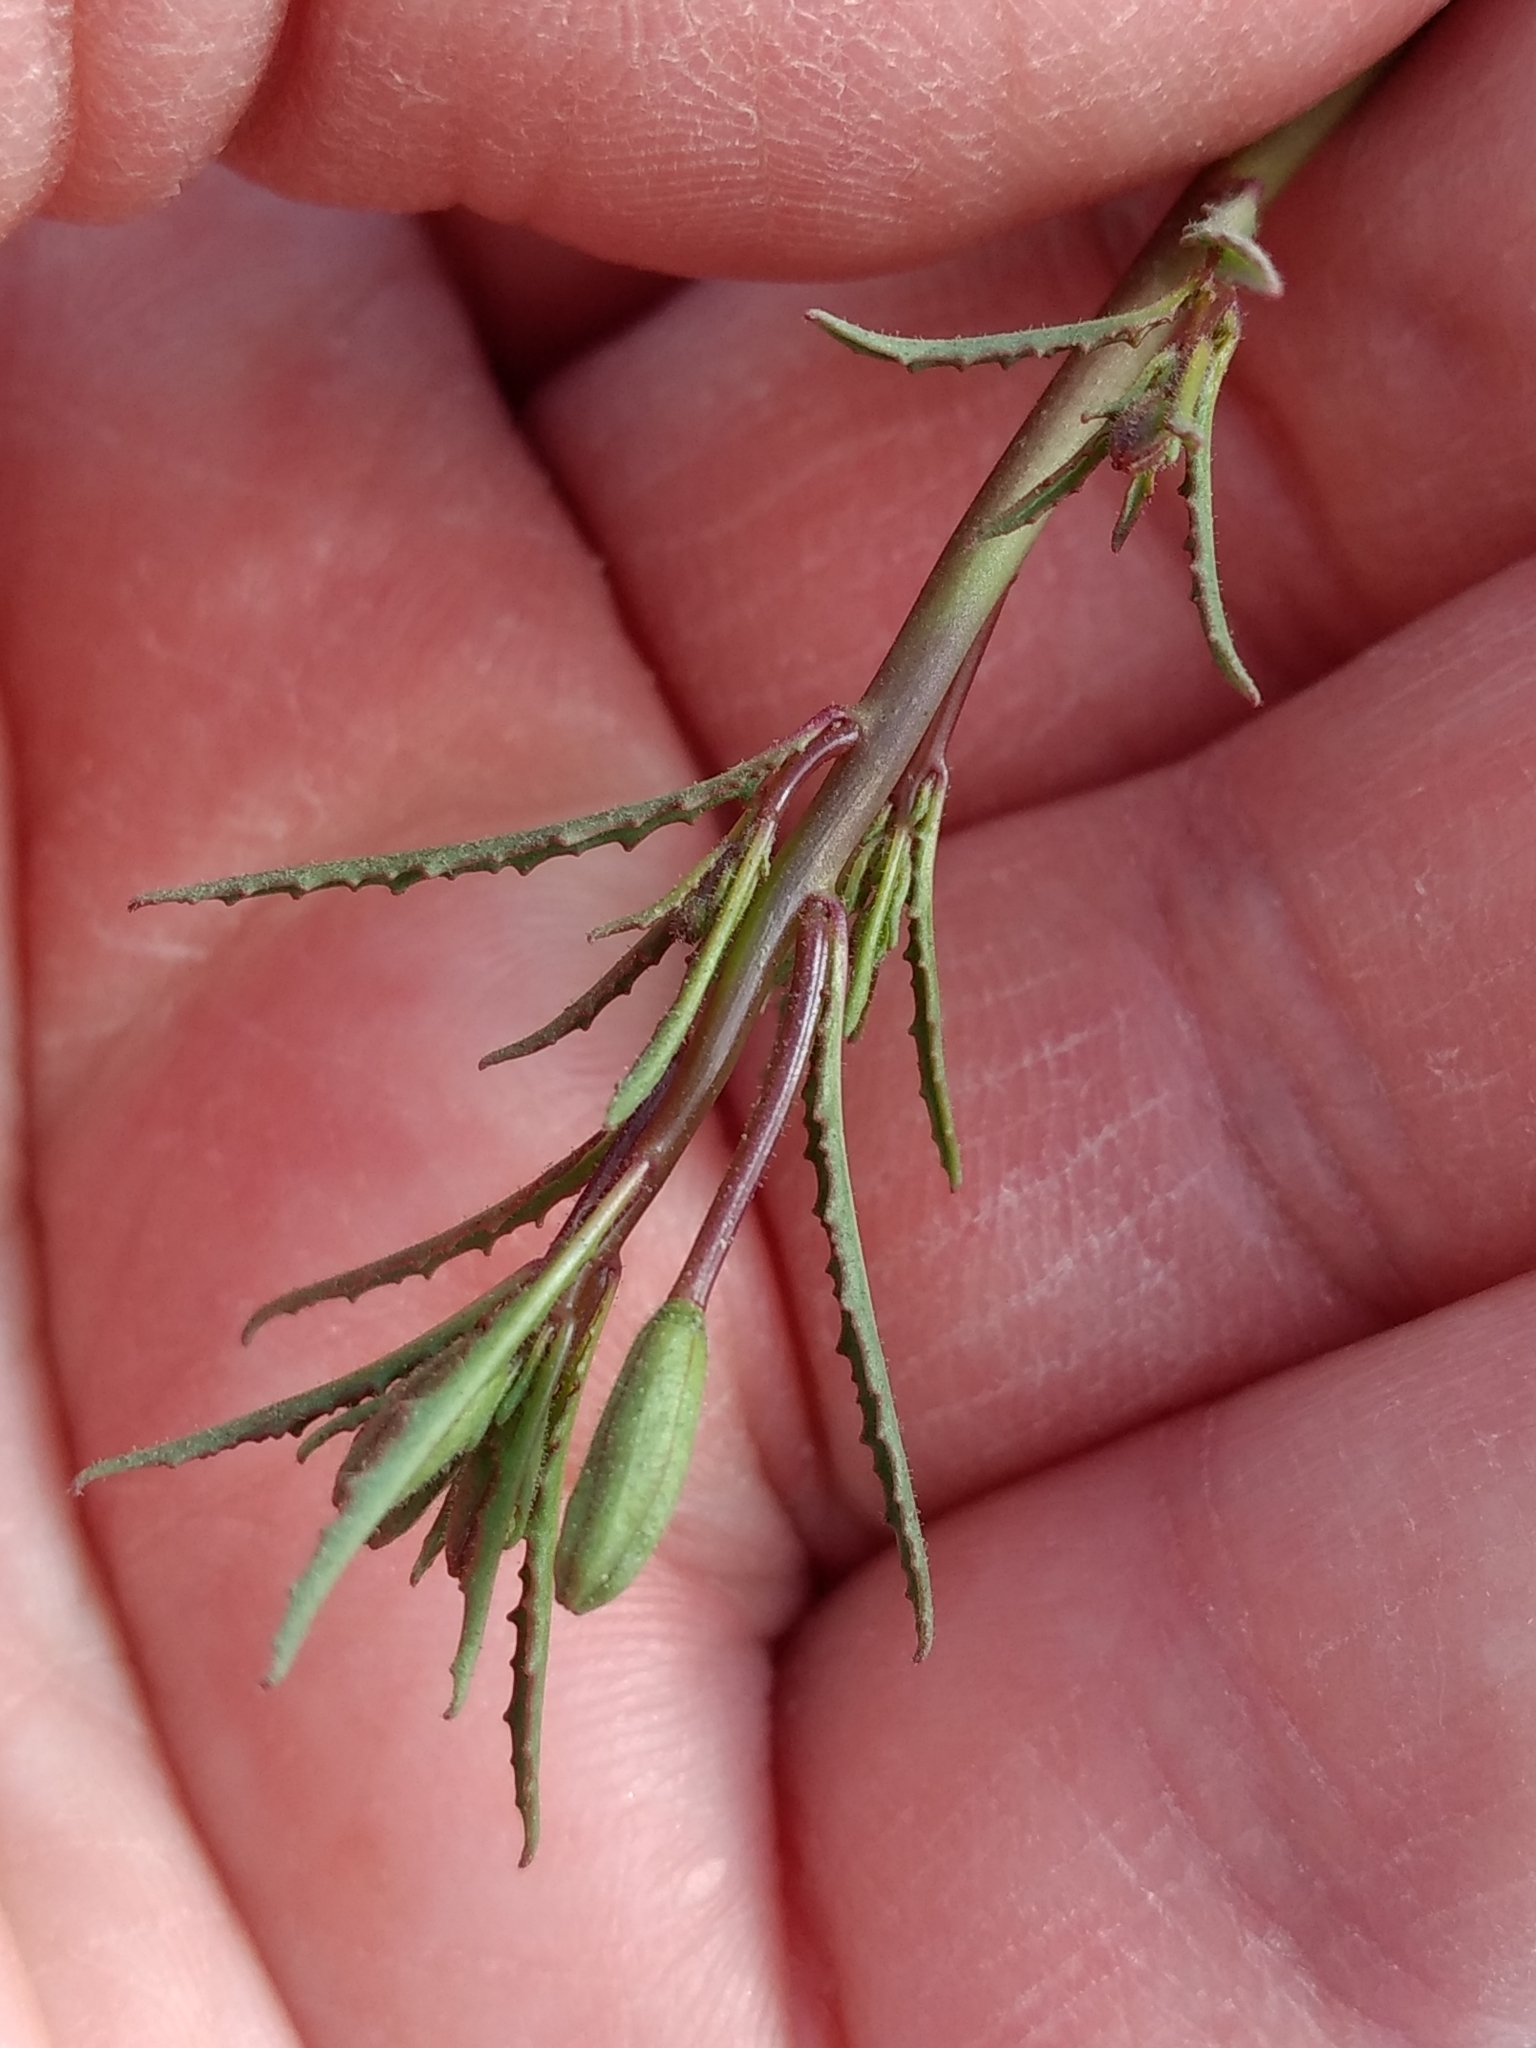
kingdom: Plantae
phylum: Tracheophyta
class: Magnoliopsida
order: Myrtales
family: Onagraceae
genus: Eulobus
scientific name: Eulobus californicus
